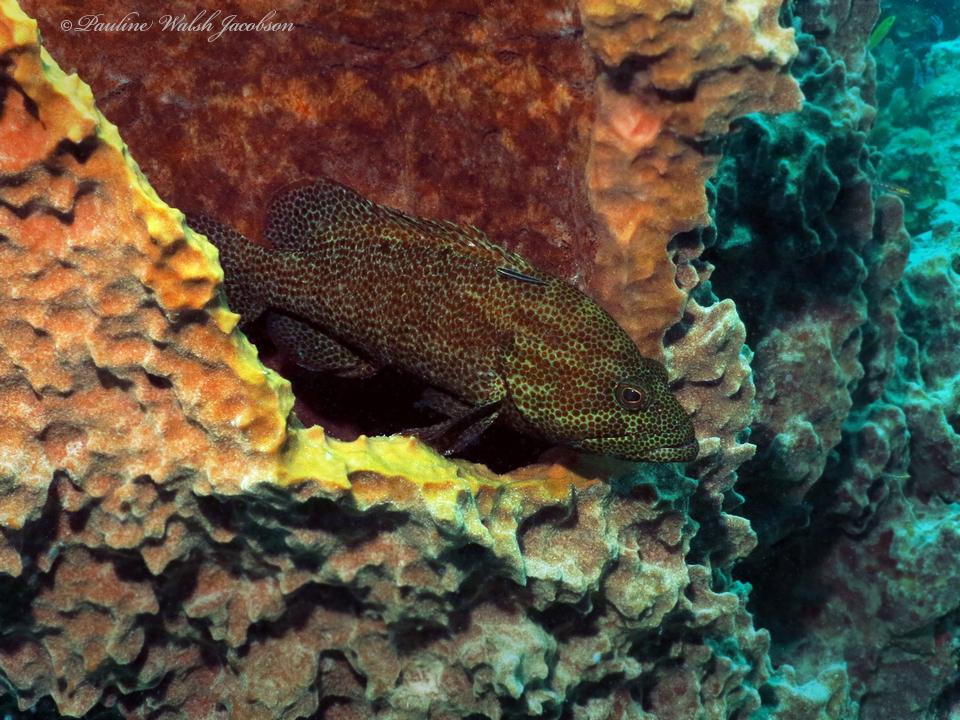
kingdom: Animalia
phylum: Chordata
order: Perciformes
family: Serranidae
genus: Cephalopholis
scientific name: Cephalopholis cruentata
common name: Graysby
